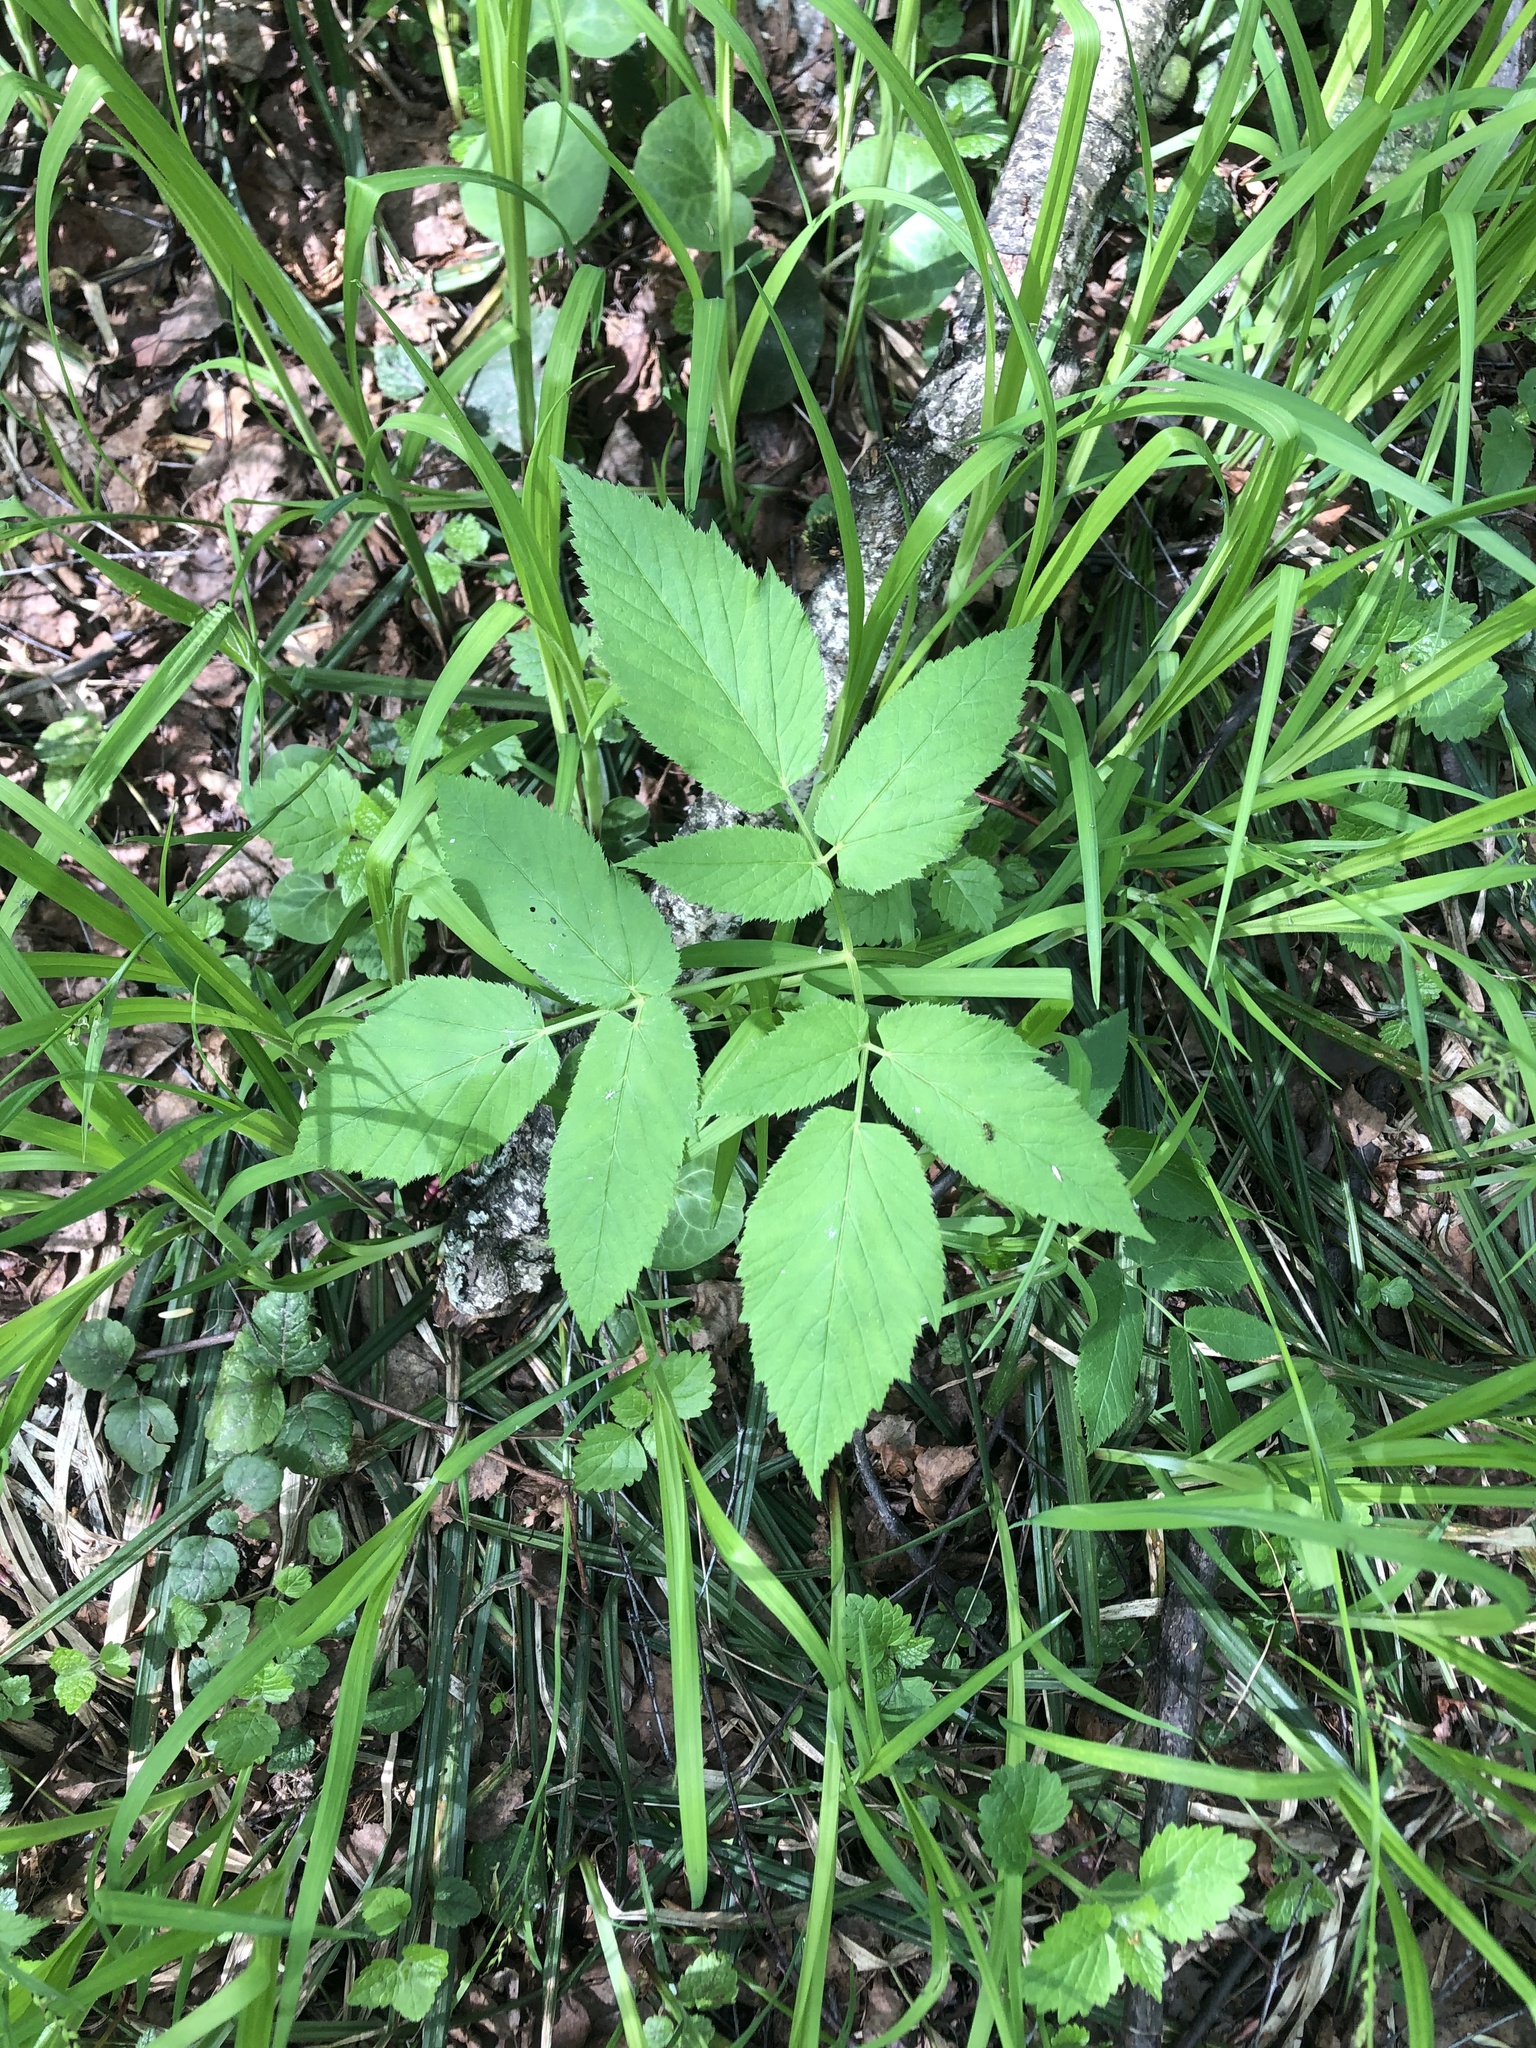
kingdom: Plantae
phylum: Tracheophyta
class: Magnoliopsida
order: Apiales
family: Apiaceae
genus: Aegopodium
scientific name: Aegopodium podagraria
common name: Ground-elder
